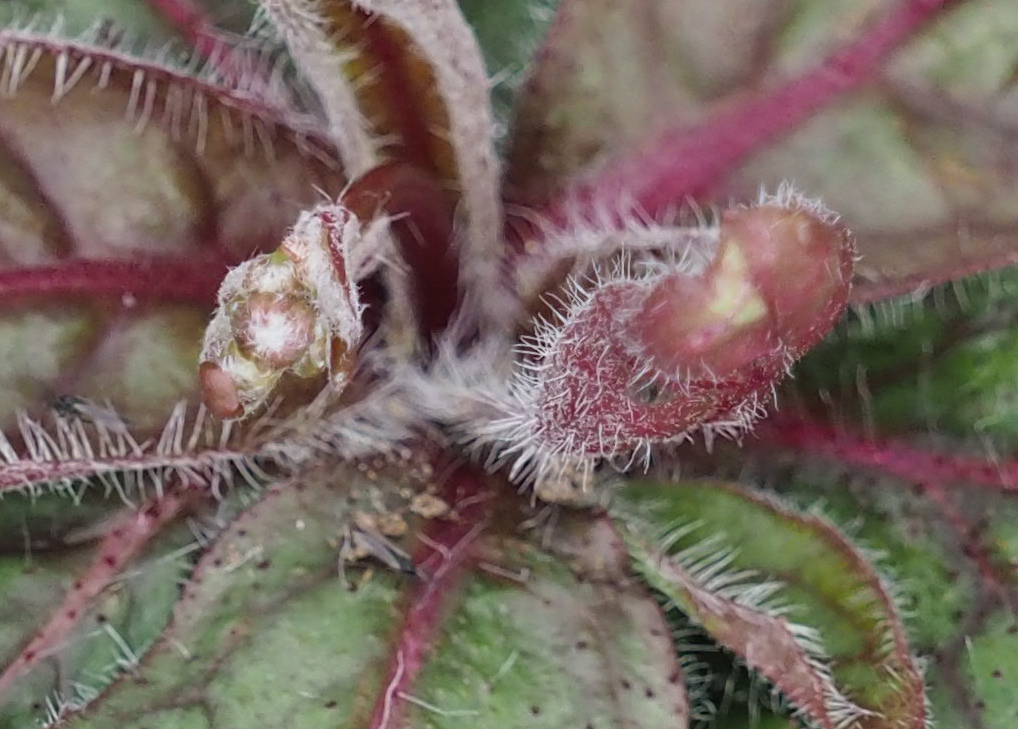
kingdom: Plantae
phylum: Tracheophyta
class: Magnoliopsida
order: Asterales
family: Asteraceae
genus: Hieracium
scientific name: Hieracium venosum
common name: Rattlesnake hawkweed
